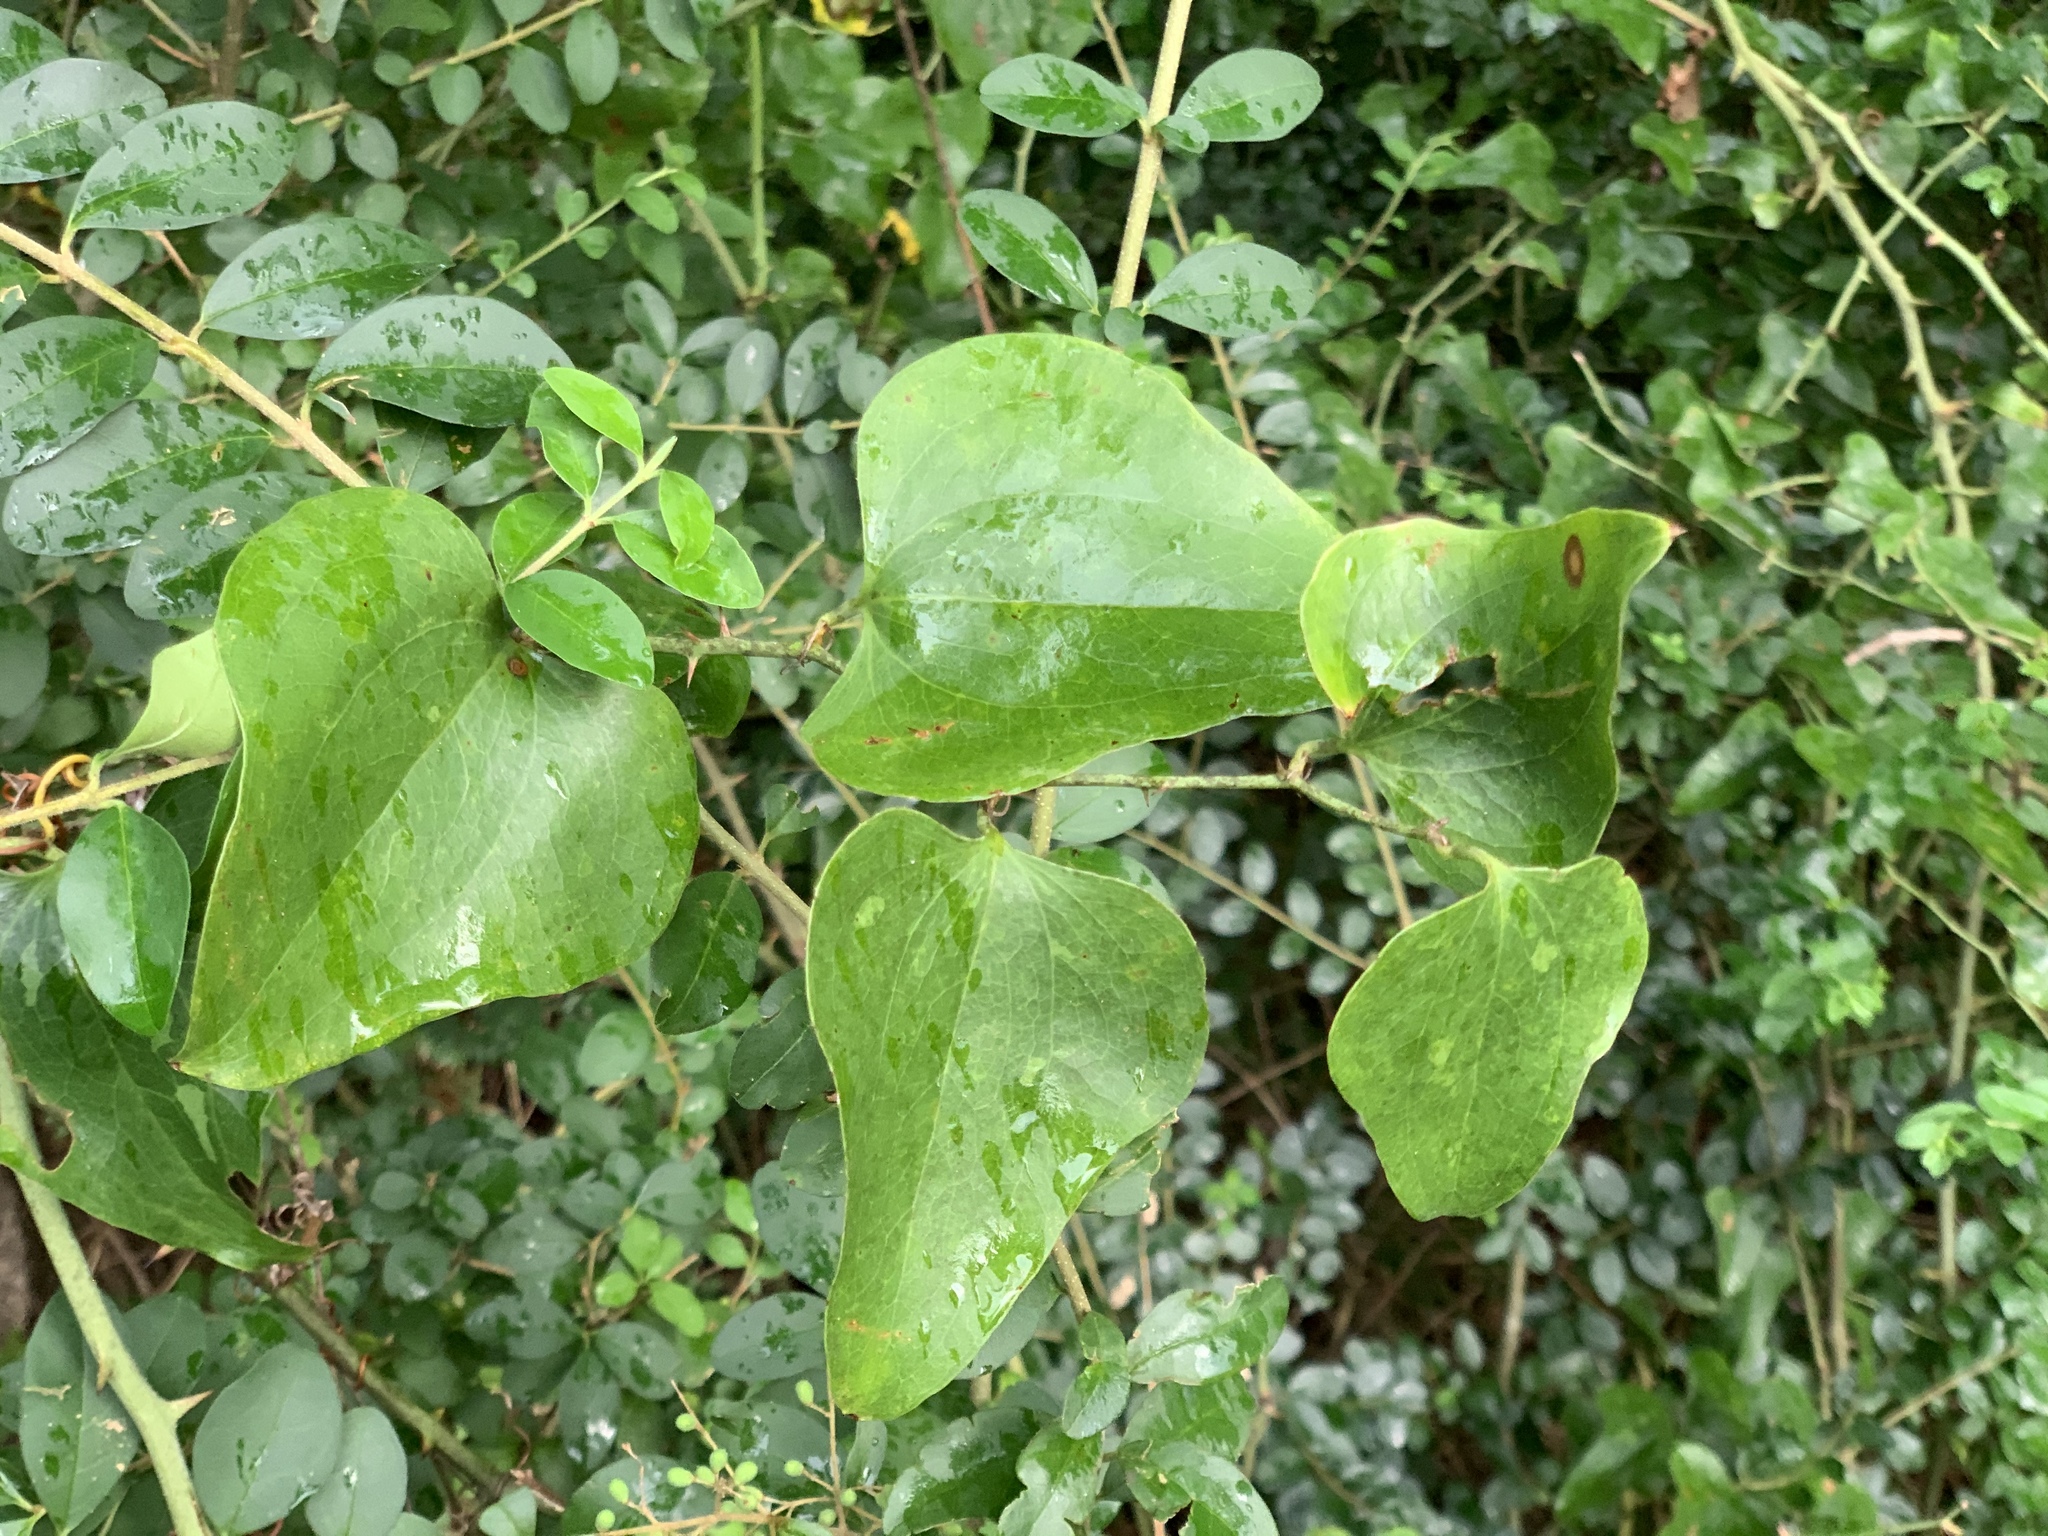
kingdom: Plantae
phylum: Tracheophyta
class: Liliopsida
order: Liliales
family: Smilacaceae
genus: Smilax
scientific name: Smilax bona-nox
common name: Catbrier
